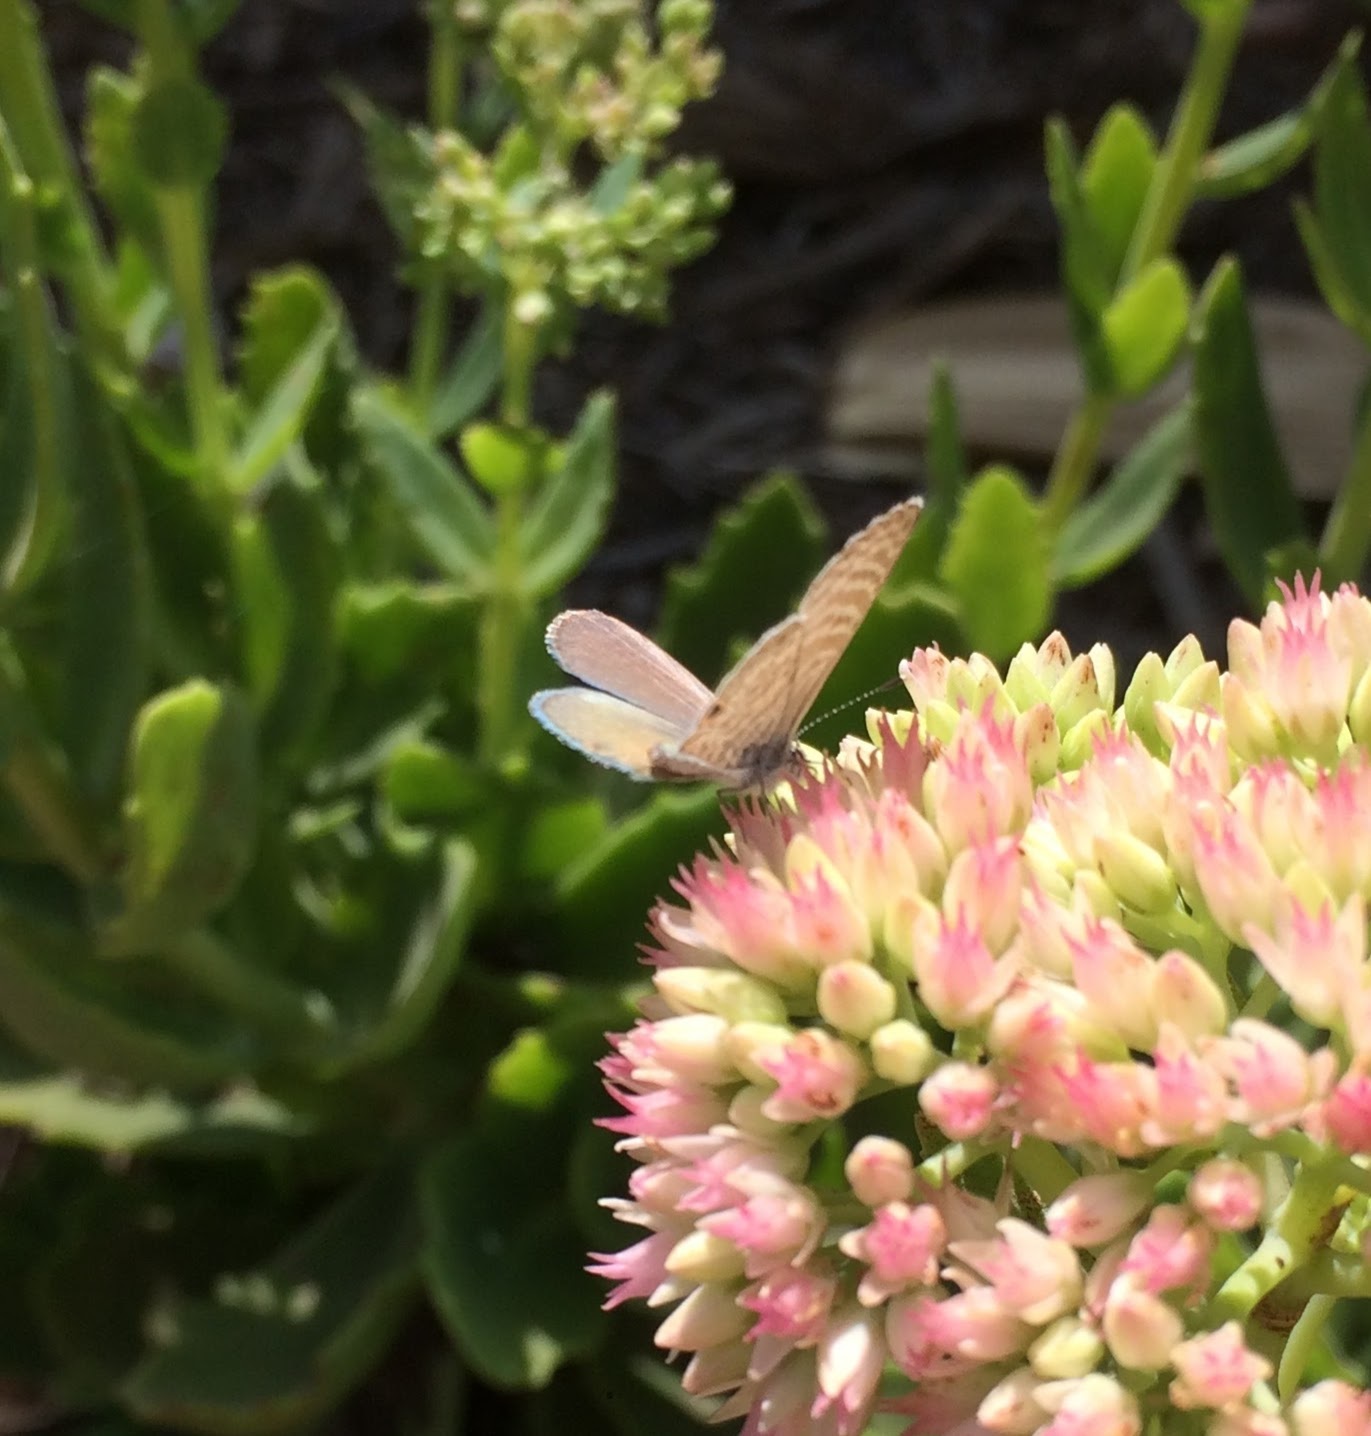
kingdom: Animalia
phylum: Arthropoda
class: Insecta
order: Lepidoptera
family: Lycaenidae
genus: Leptotes
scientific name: Leptotes marina
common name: Marine blue
